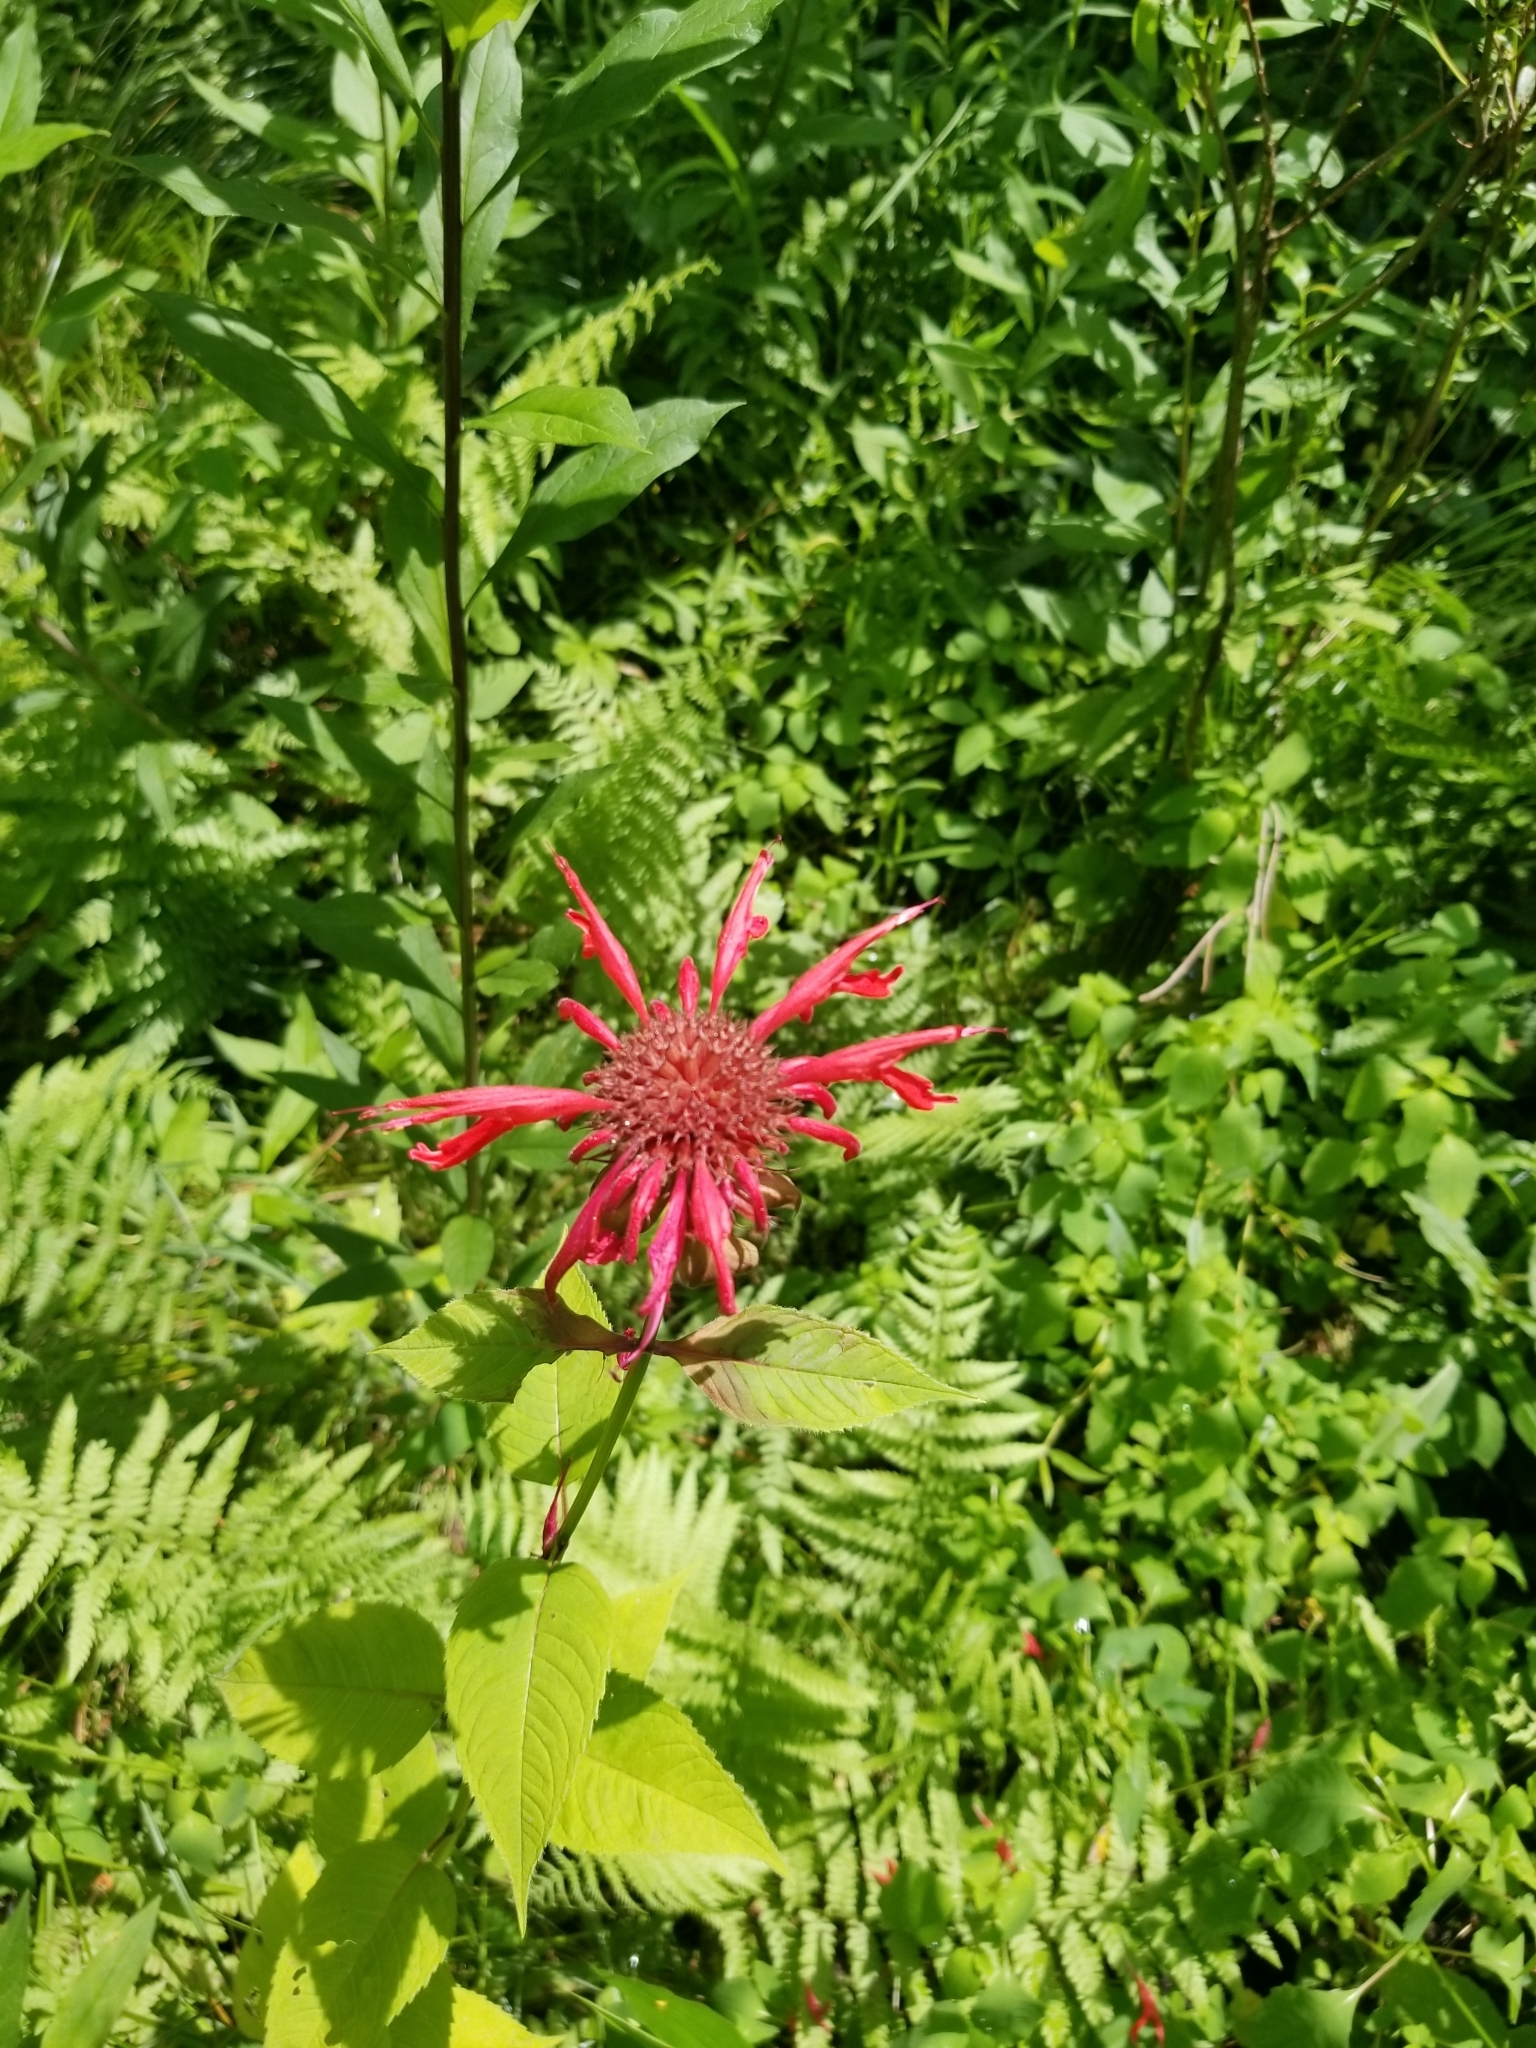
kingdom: Plantae
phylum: Tracheophyta
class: Magnoliopsida
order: Lamiales
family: Lamiaceae
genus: Monarda
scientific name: Monarda didyma
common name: Beebalm
